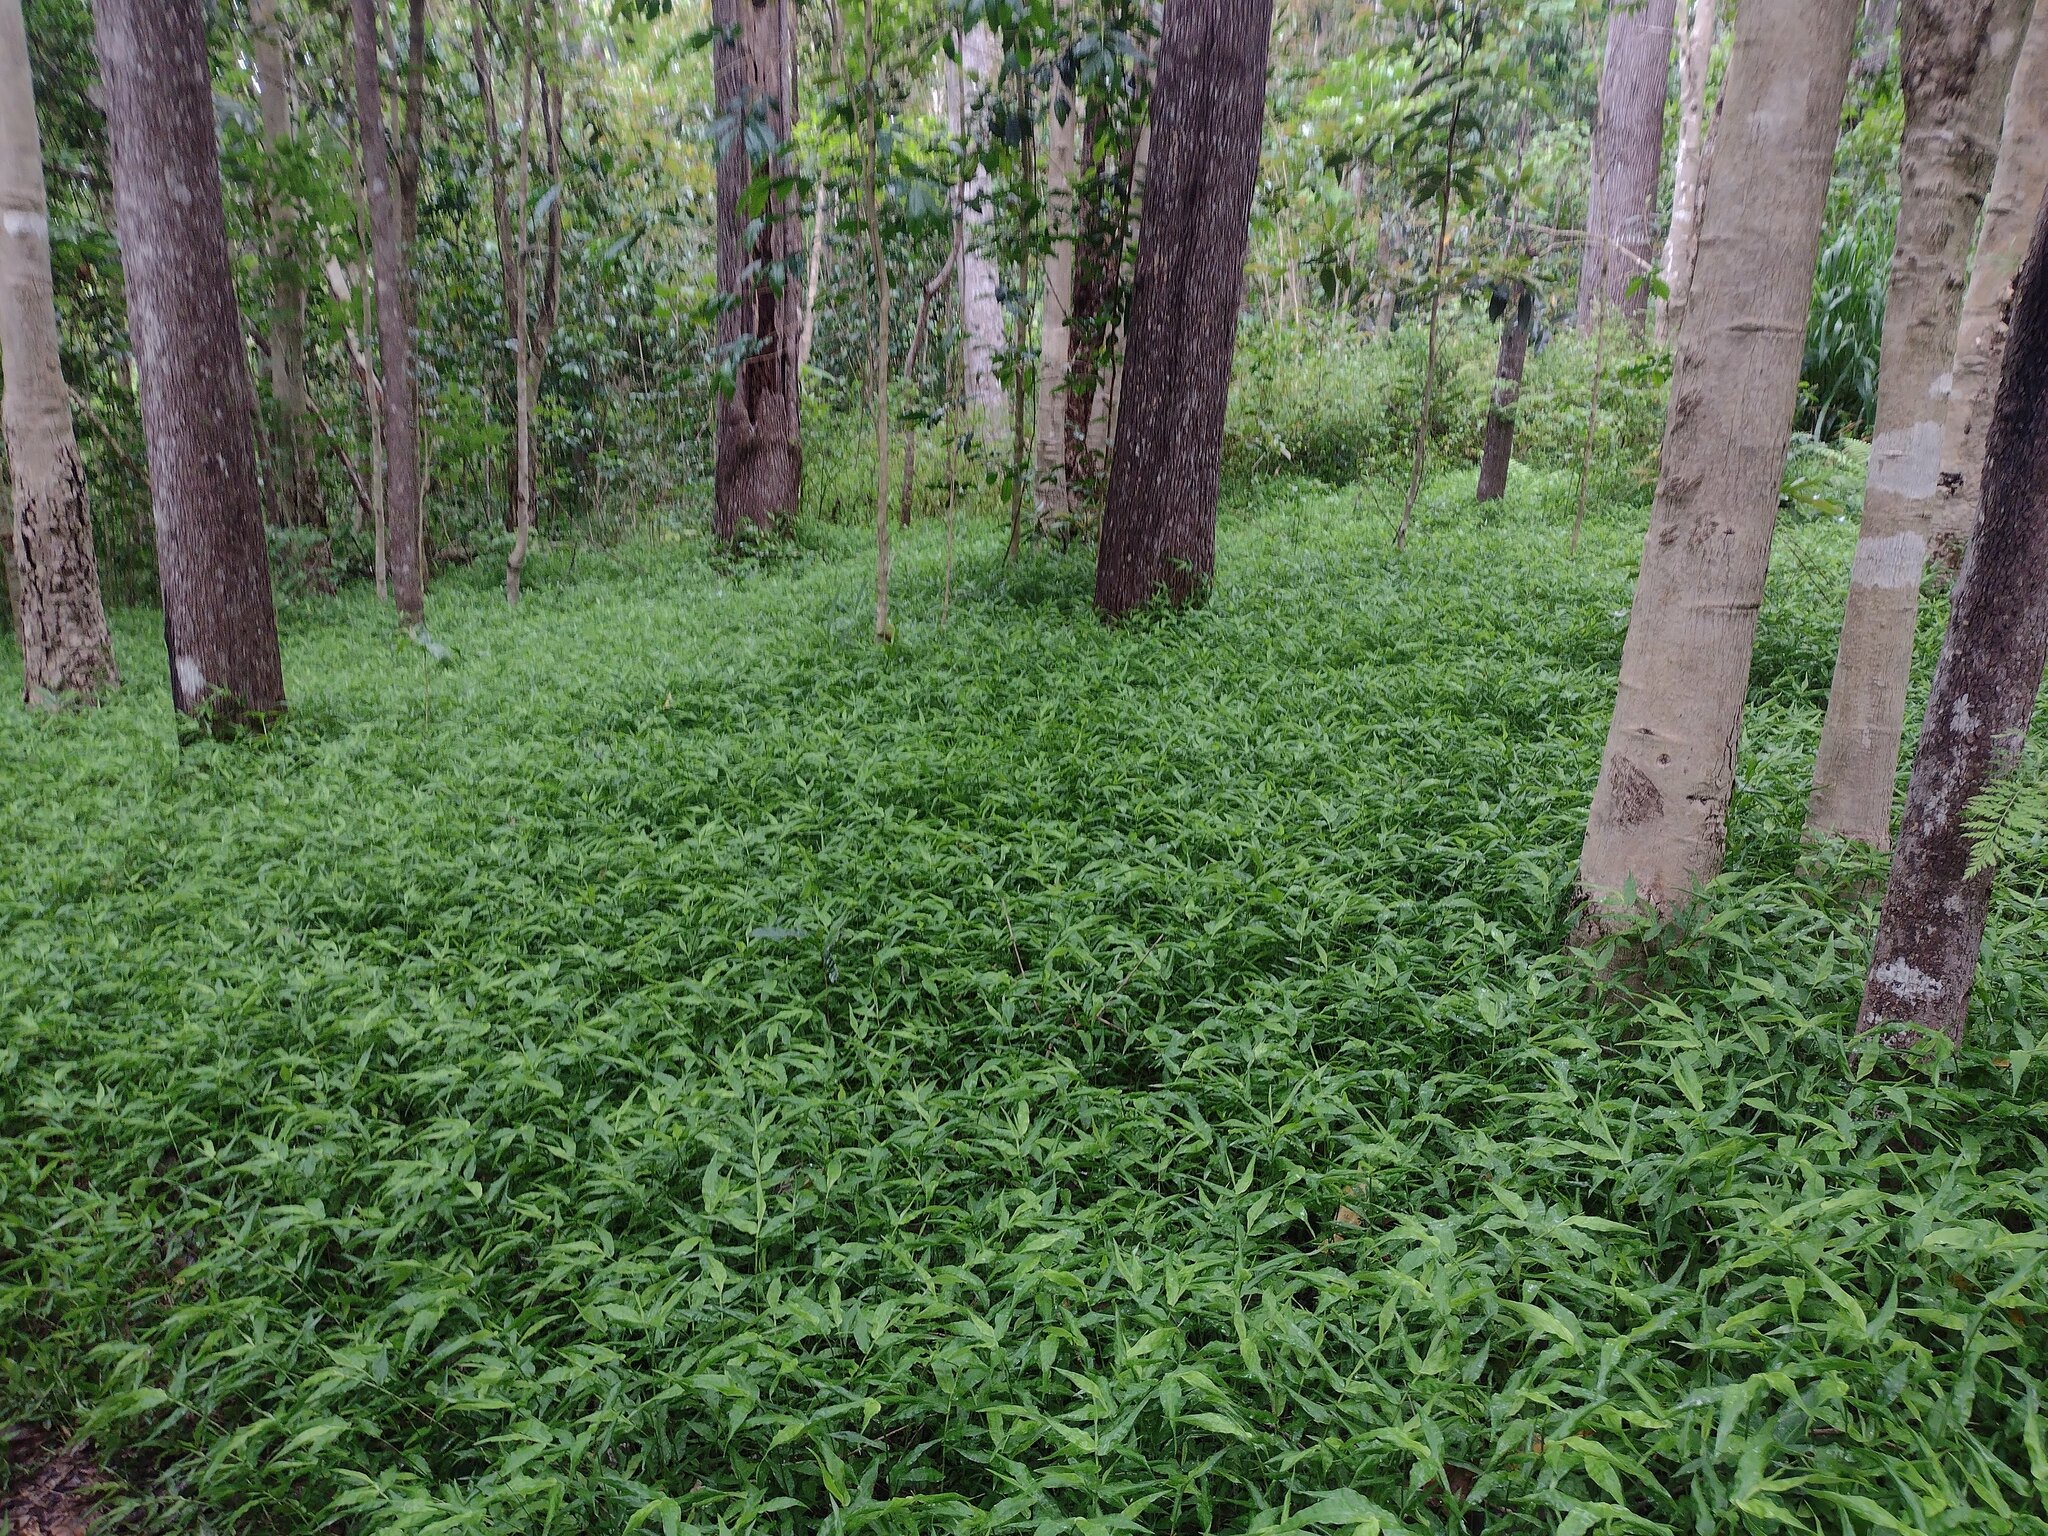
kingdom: Plantae
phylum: Tracheophyta
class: Liliopsida
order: Poales
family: Poaceae
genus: Oplismenus
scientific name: Oplismenus hirtellus
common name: Basketgrass
